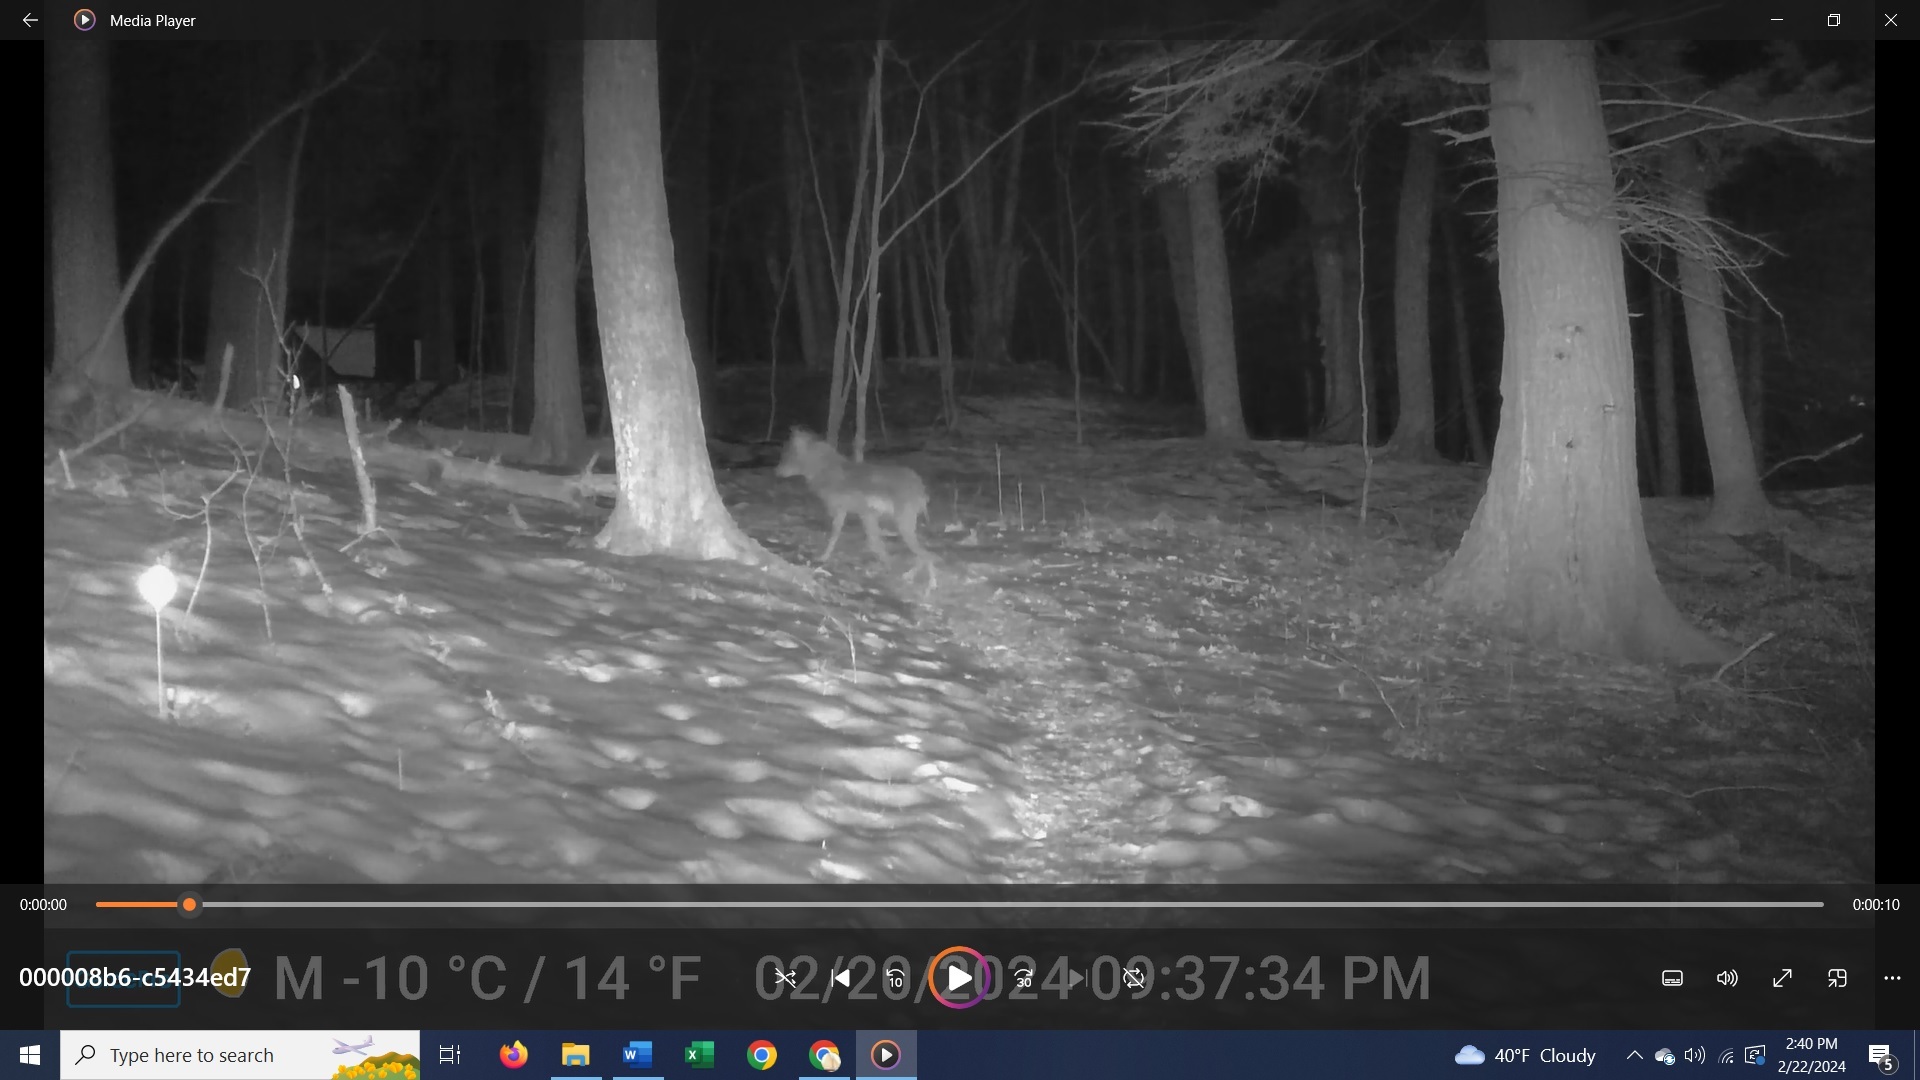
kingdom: Animalia
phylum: Chordata
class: Mammalia
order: Carnivora
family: Canidae
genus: Canis
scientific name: Canis latrans
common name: Coyote
